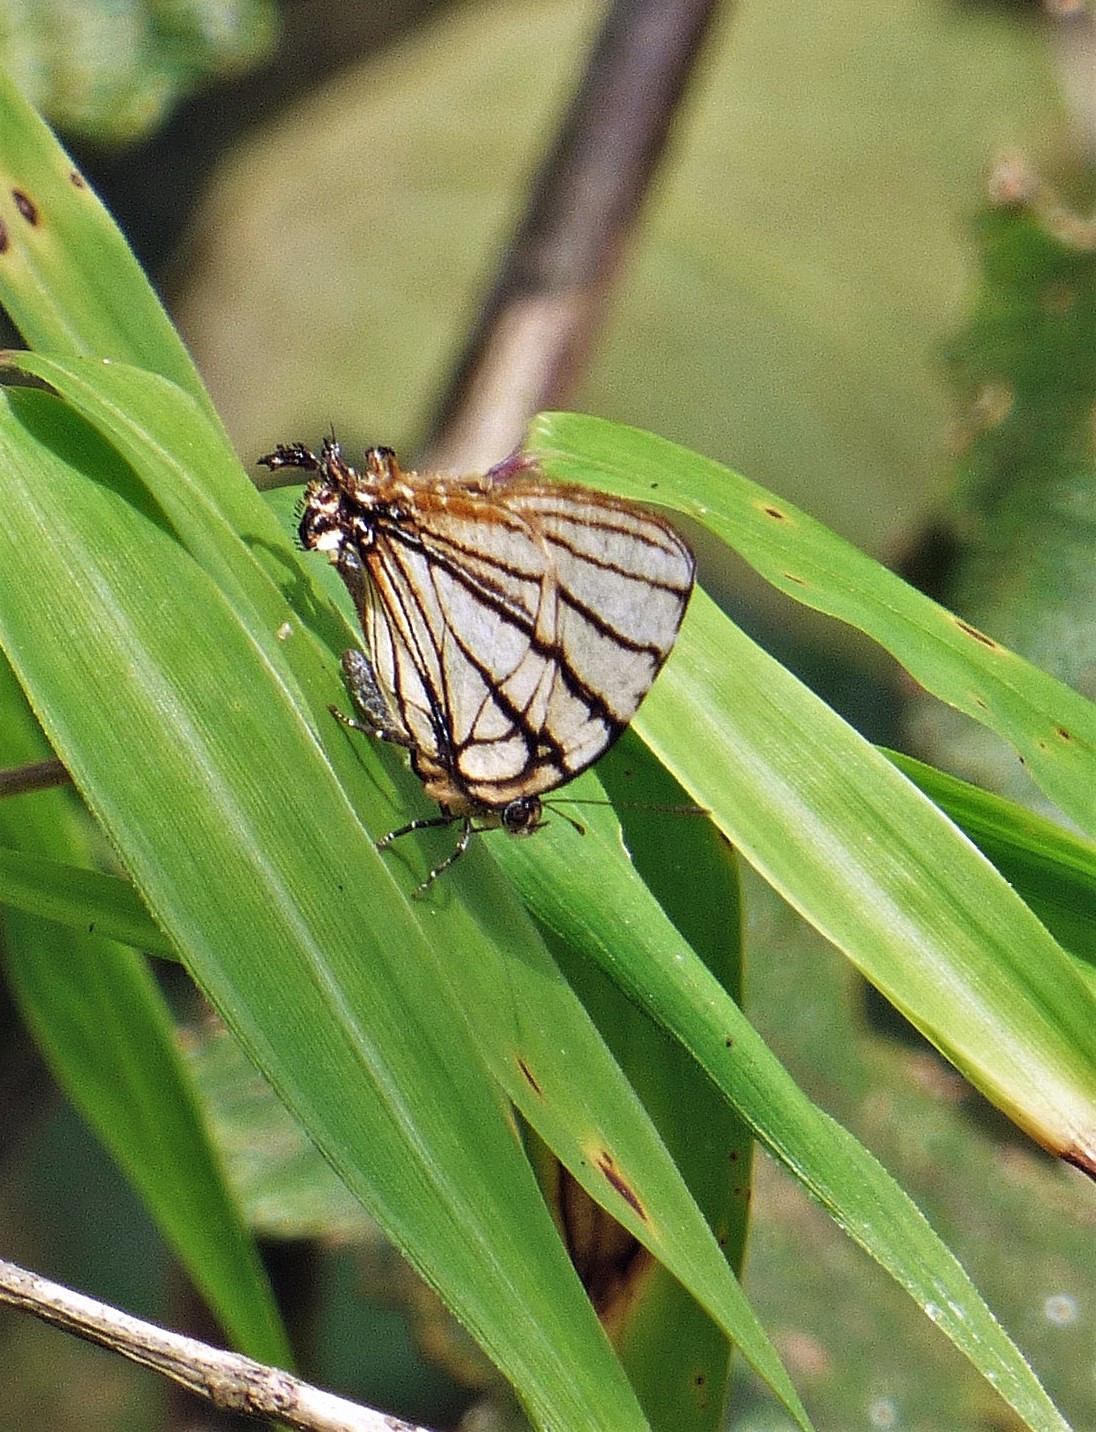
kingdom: Animalia
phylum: Arthropoda
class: Insecta
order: Lepidoptera
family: Lycaenidae
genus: Arawacus
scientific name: Arawacus melibaeus
